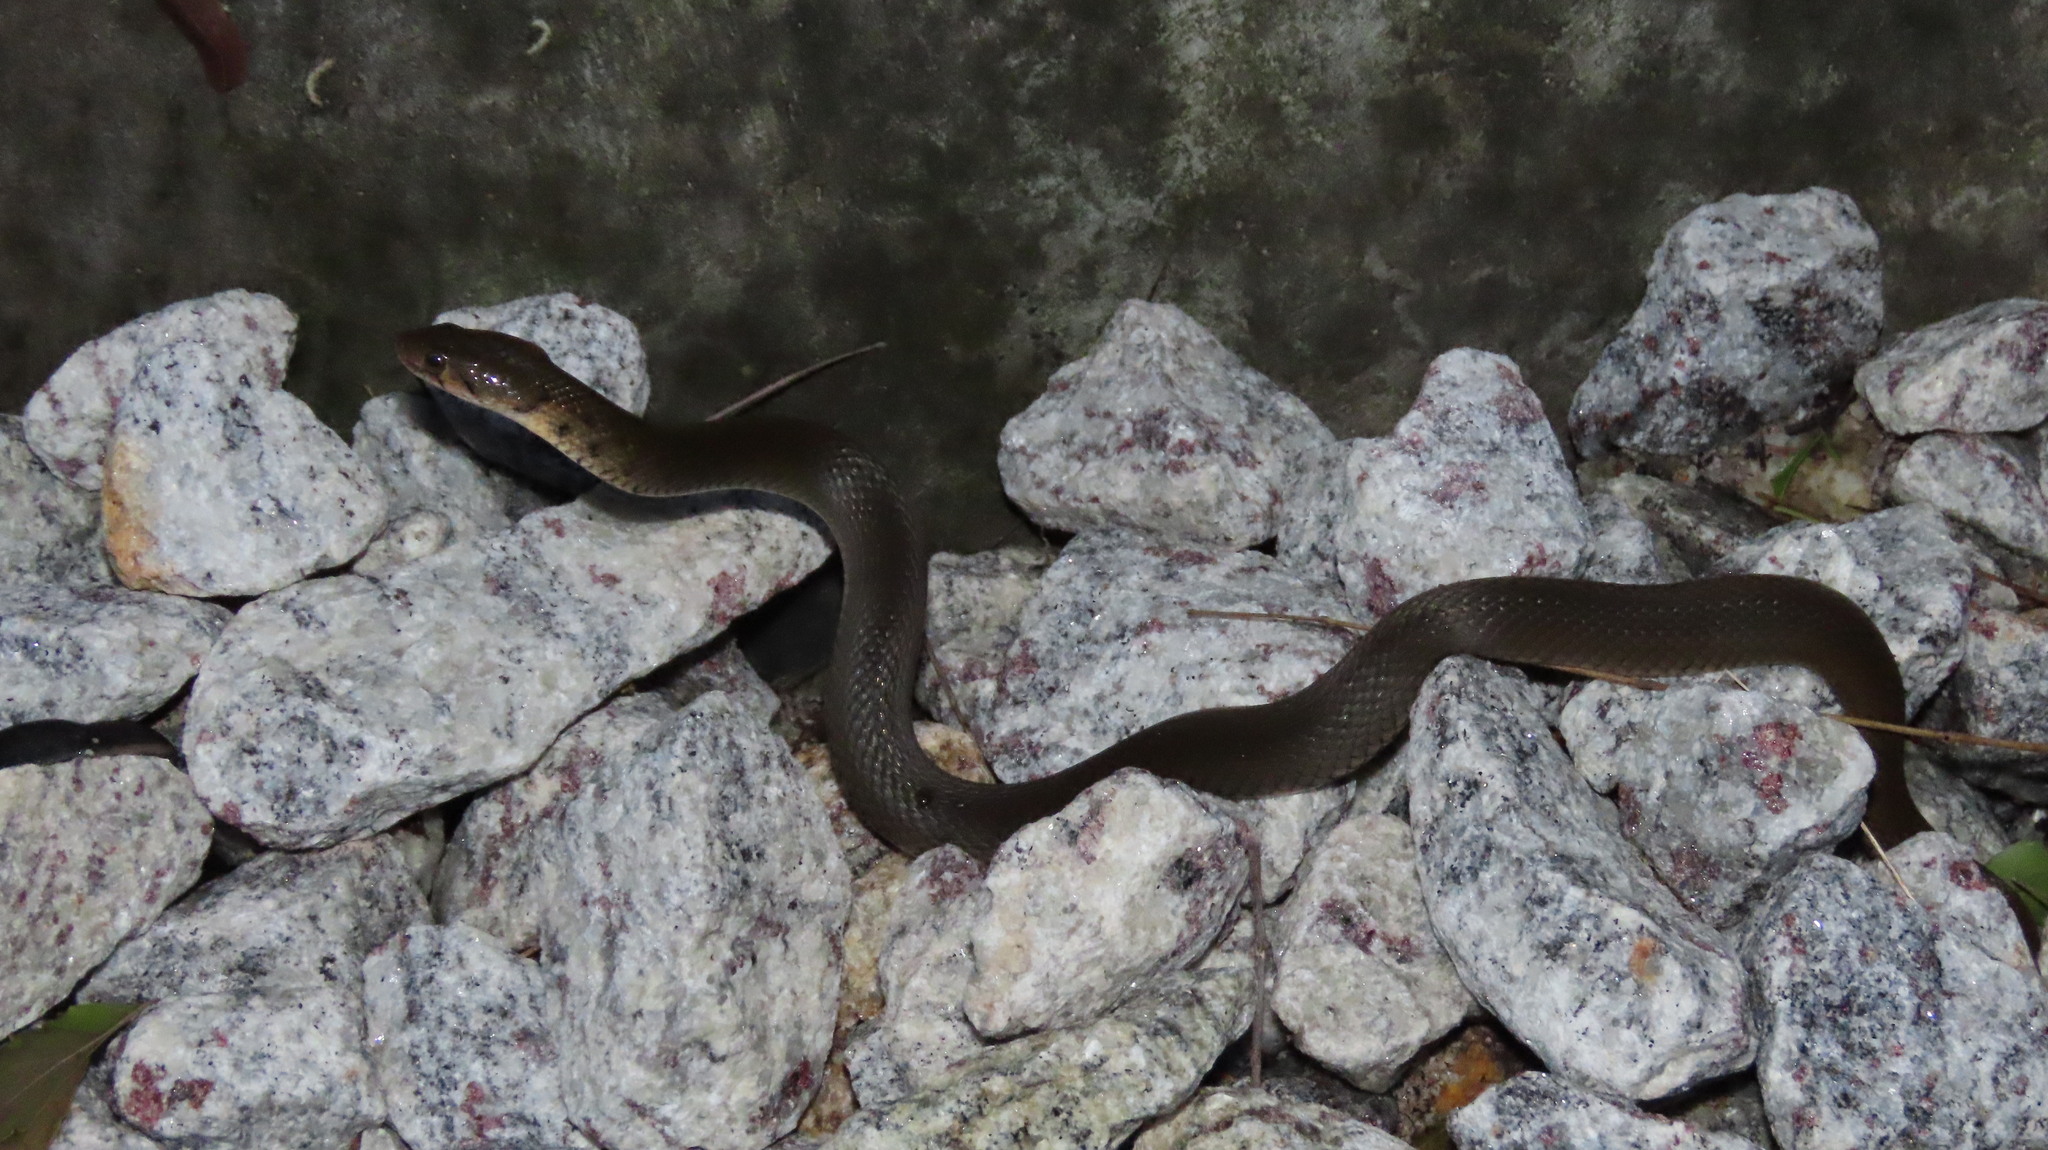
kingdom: Animalia
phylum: Chordata
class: Squamata
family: Colubridae
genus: Fowlea
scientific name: Fowlea piscator
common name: Asiatic water snake
